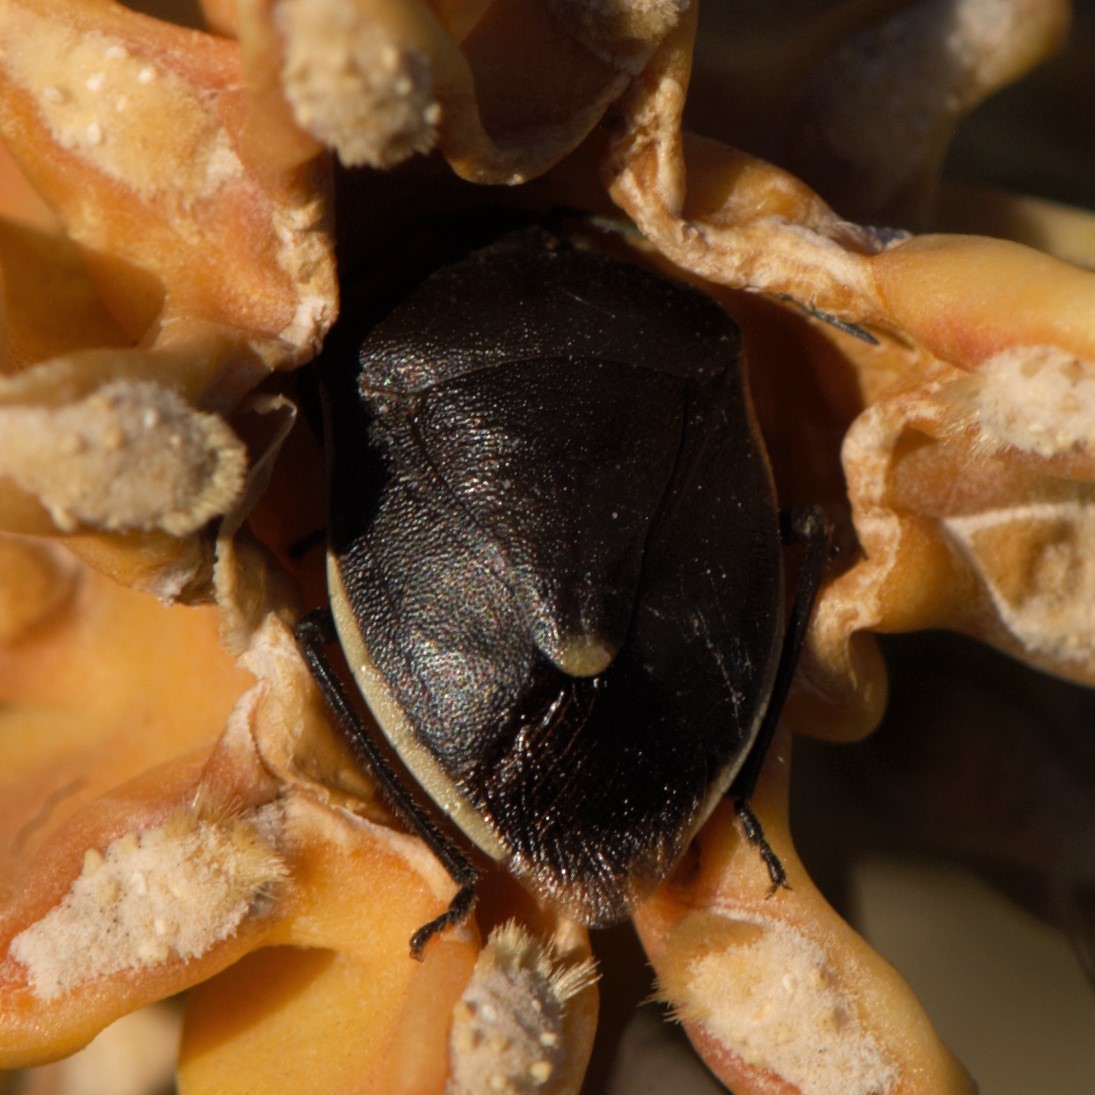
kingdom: Animalia
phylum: Arthropoda
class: Insecta
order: Hemiptera
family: Pentatomidae
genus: Chlorochroa
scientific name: Chlorochroa opuntiae
